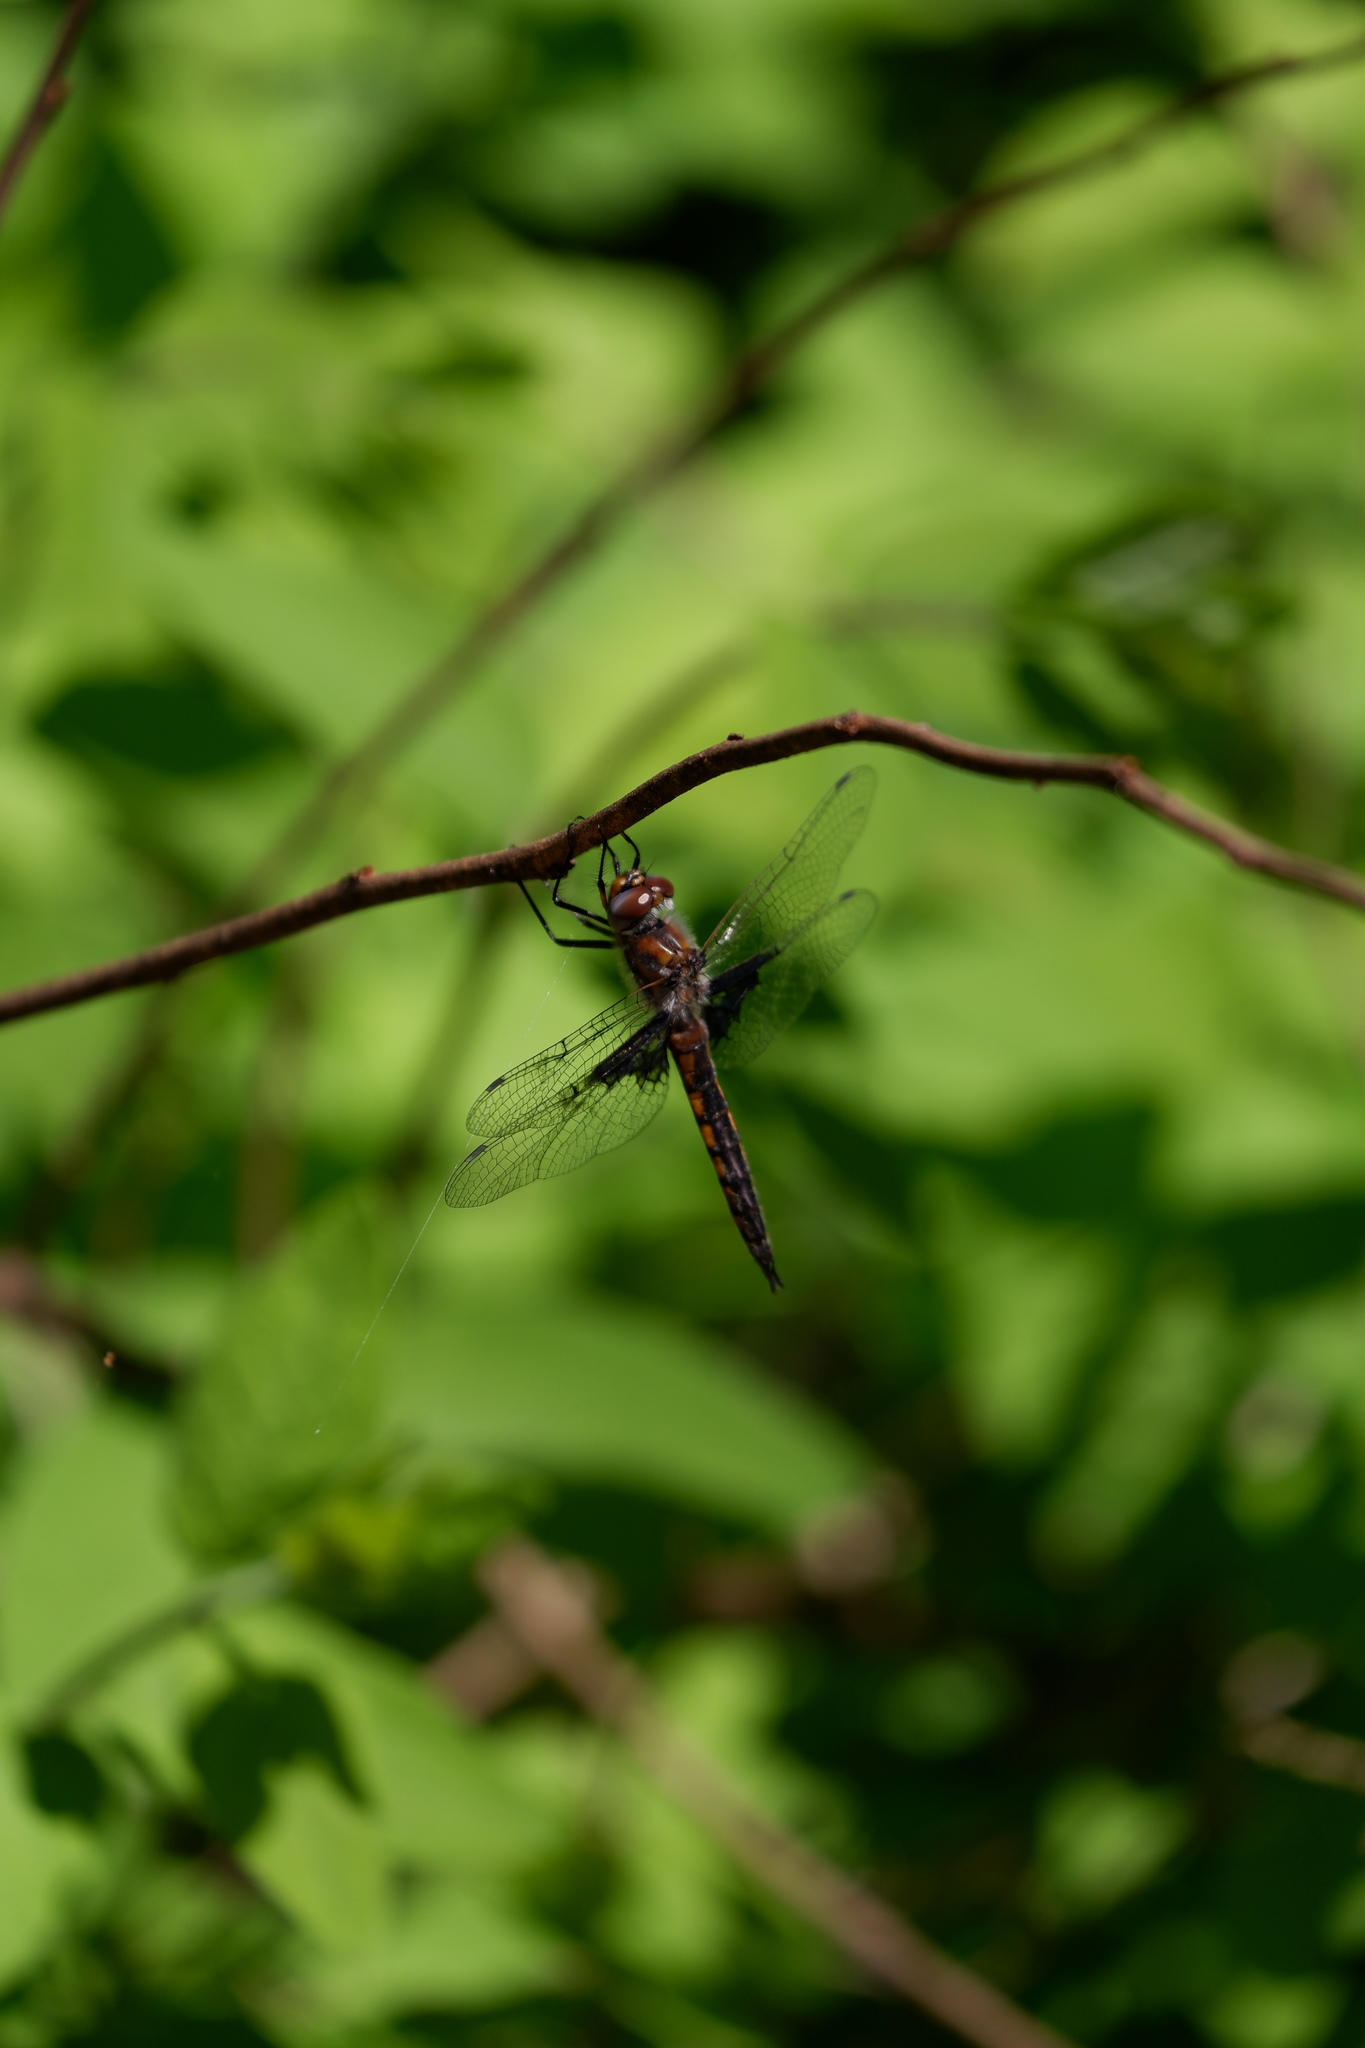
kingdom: Animalia
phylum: Arthropoda
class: Insecta
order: Odonata
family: Corduliidae
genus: Epitheca
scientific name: Epitheca semiaquea
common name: Mantled baskettail
